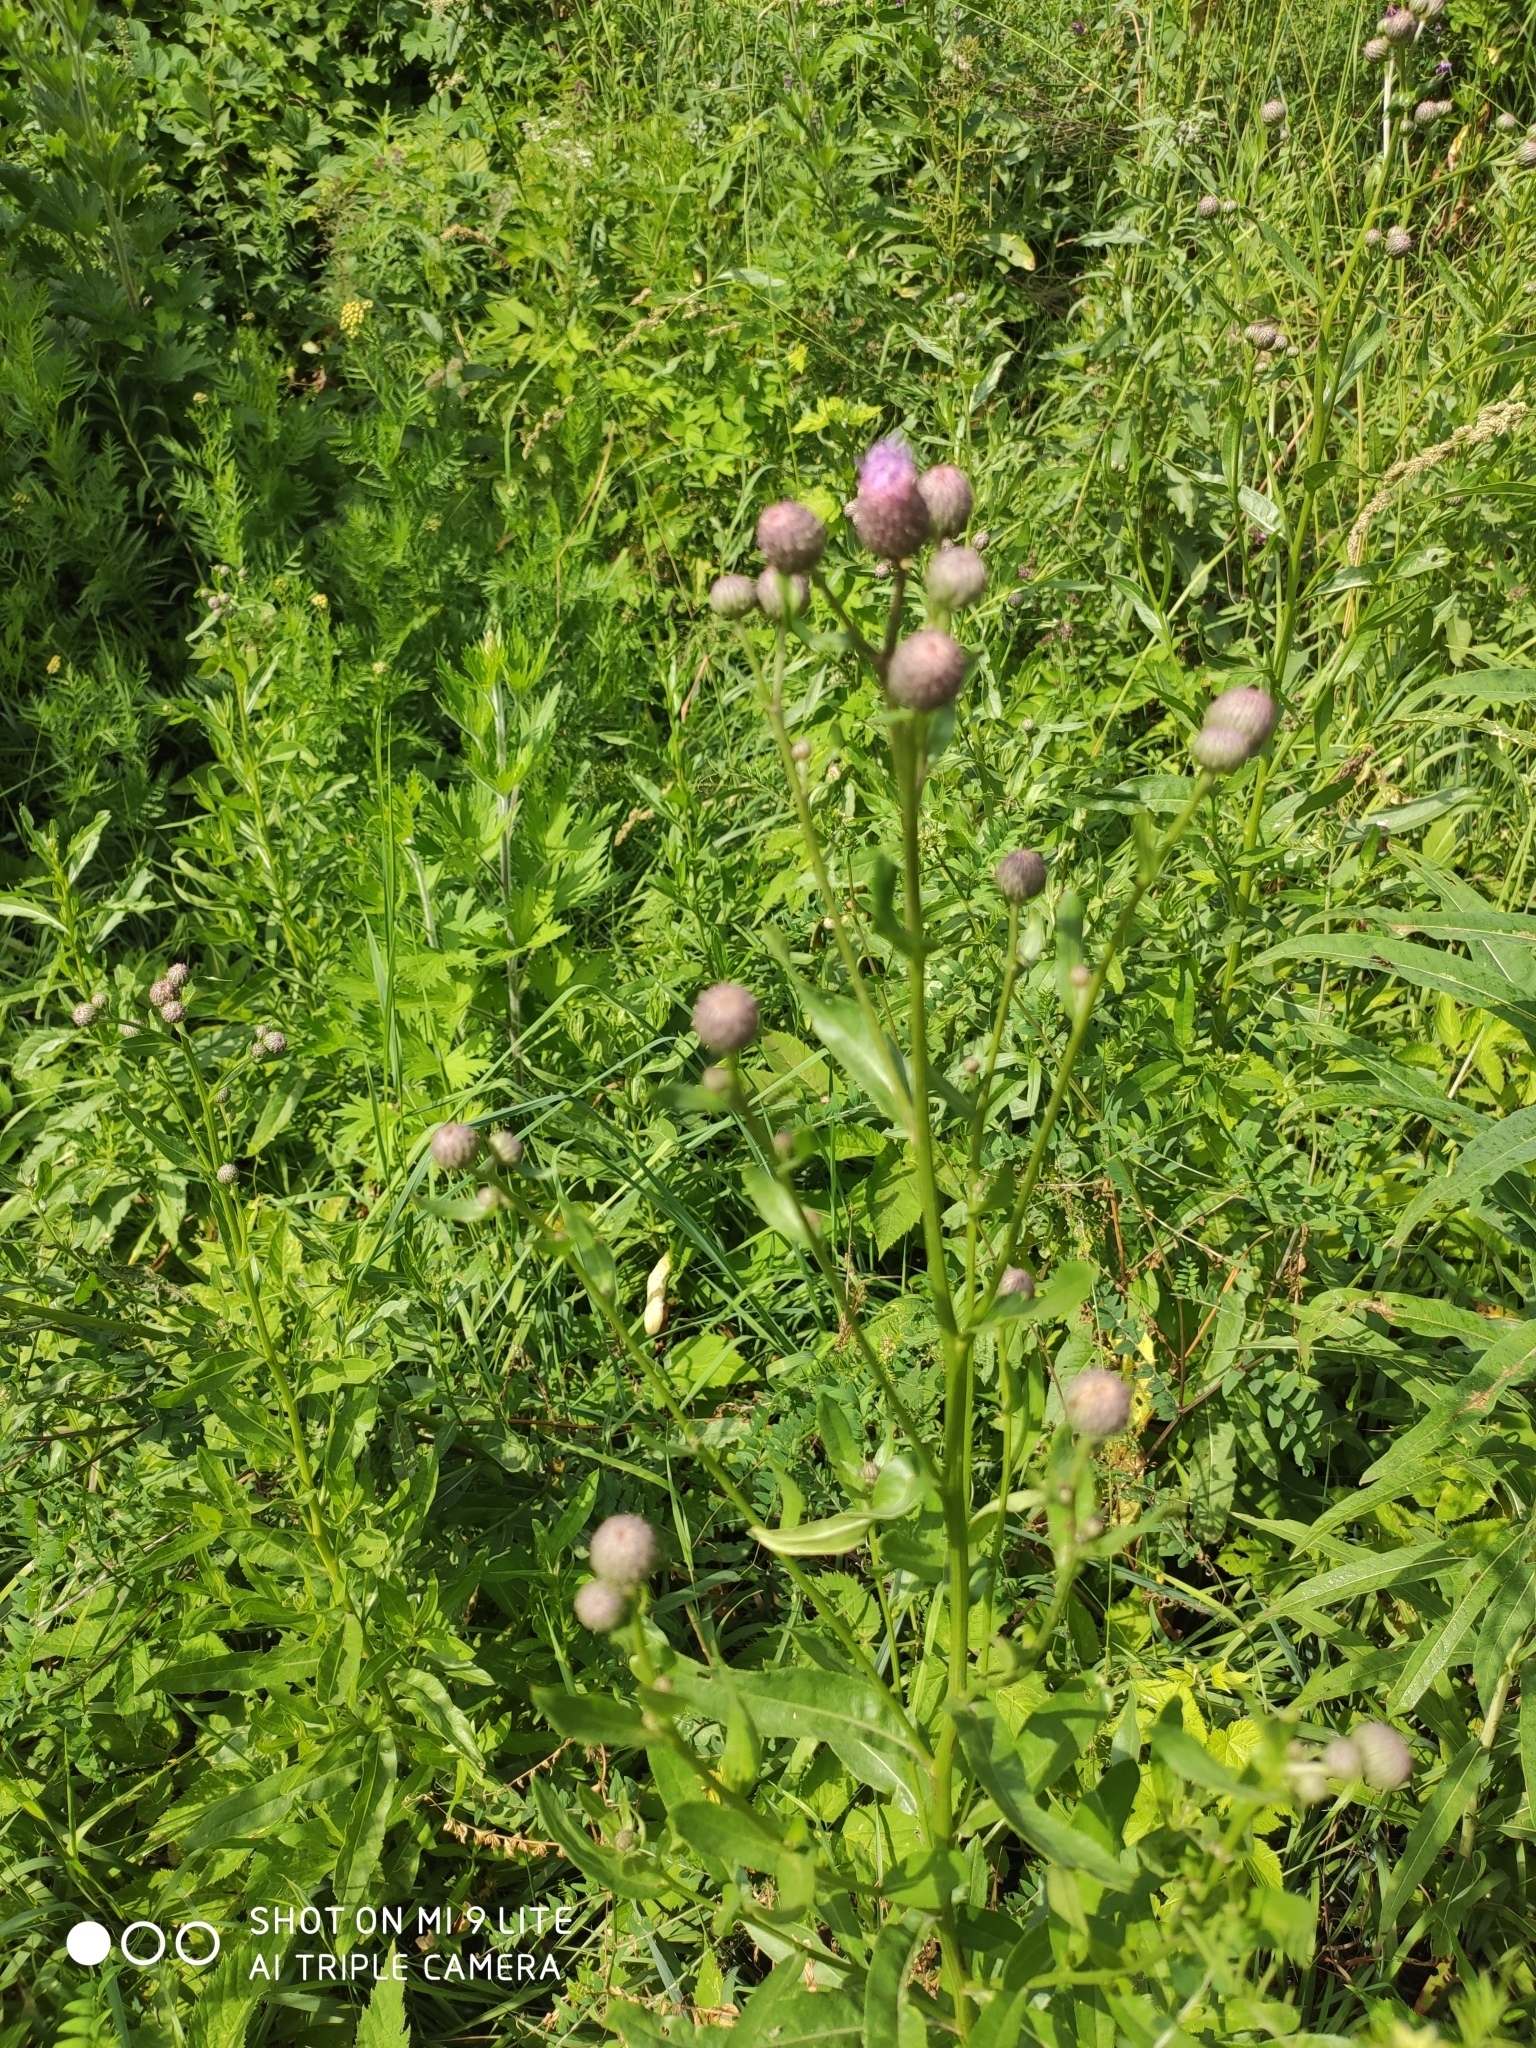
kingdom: Plantae
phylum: Tracheophyta
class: Magnoliopsida
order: Asterales
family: Asteraceae
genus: Cirsium
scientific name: Cirsium arvense
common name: Creeping thistle
